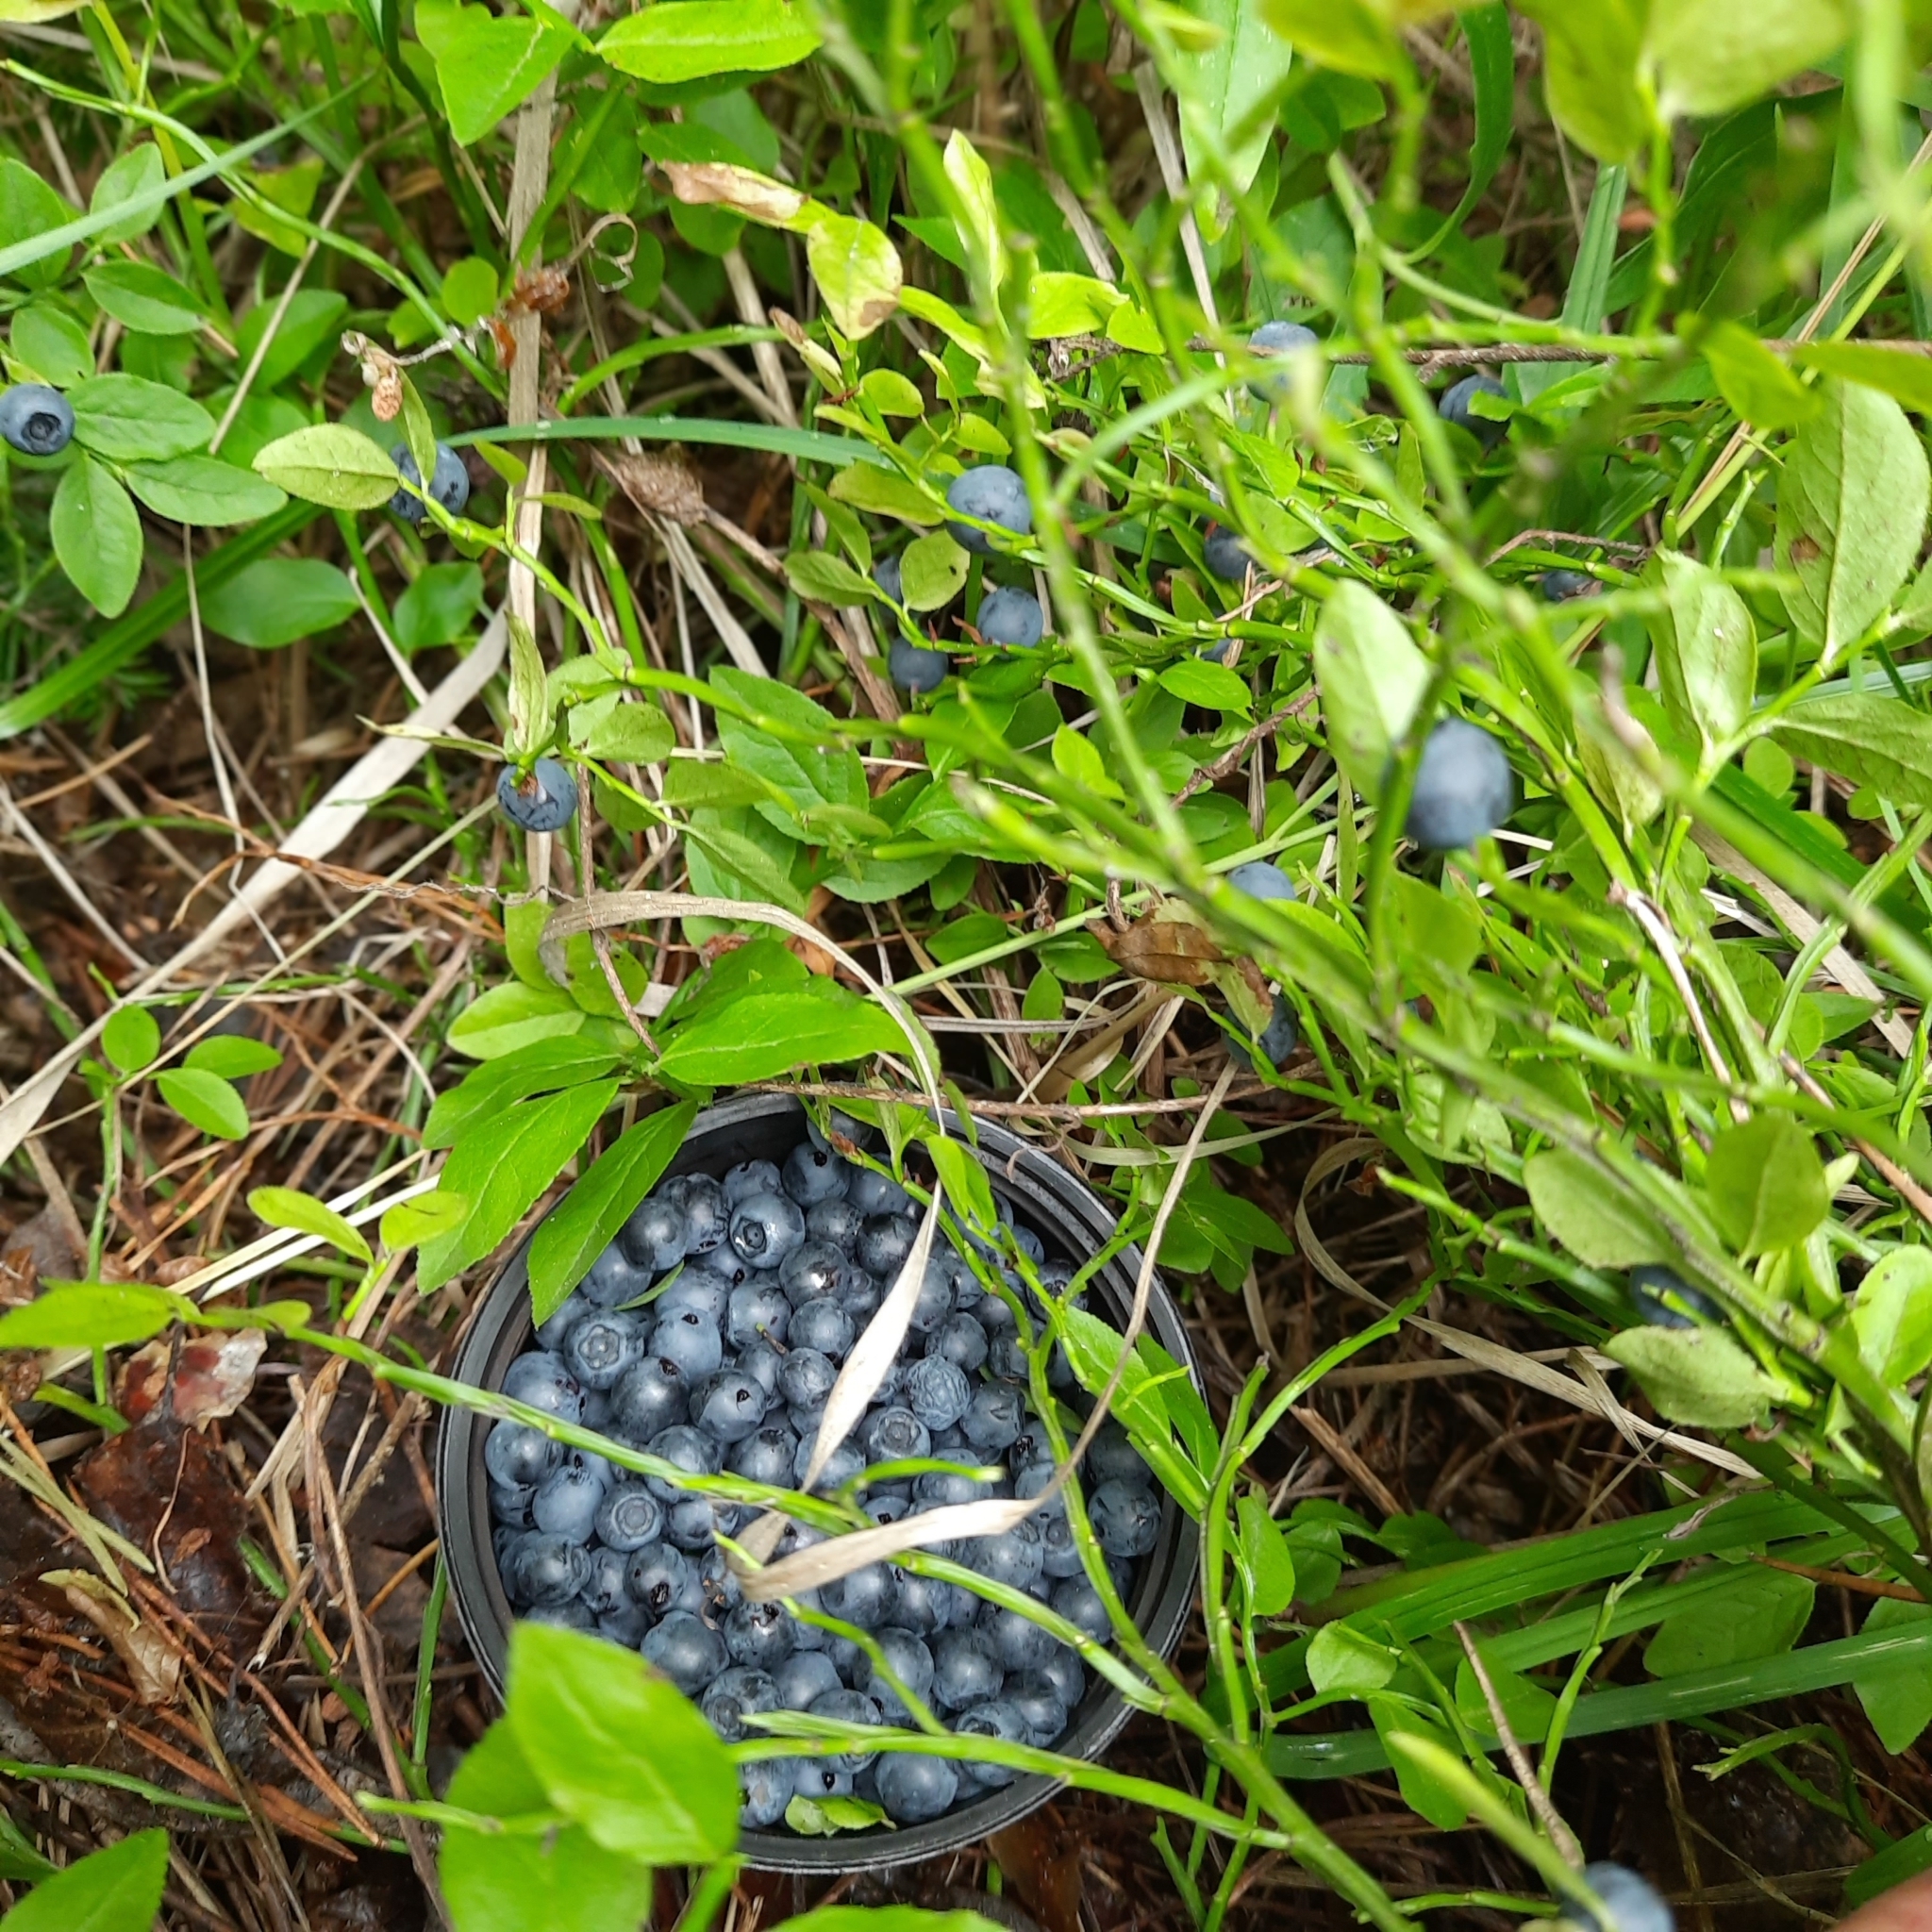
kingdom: Plantae
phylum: Tracheophyta
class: Magnoliopsida
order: Ericales
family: Ericaceae
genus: Vaccinium
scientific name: Vaccinium myrtillus
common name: Bilberry
